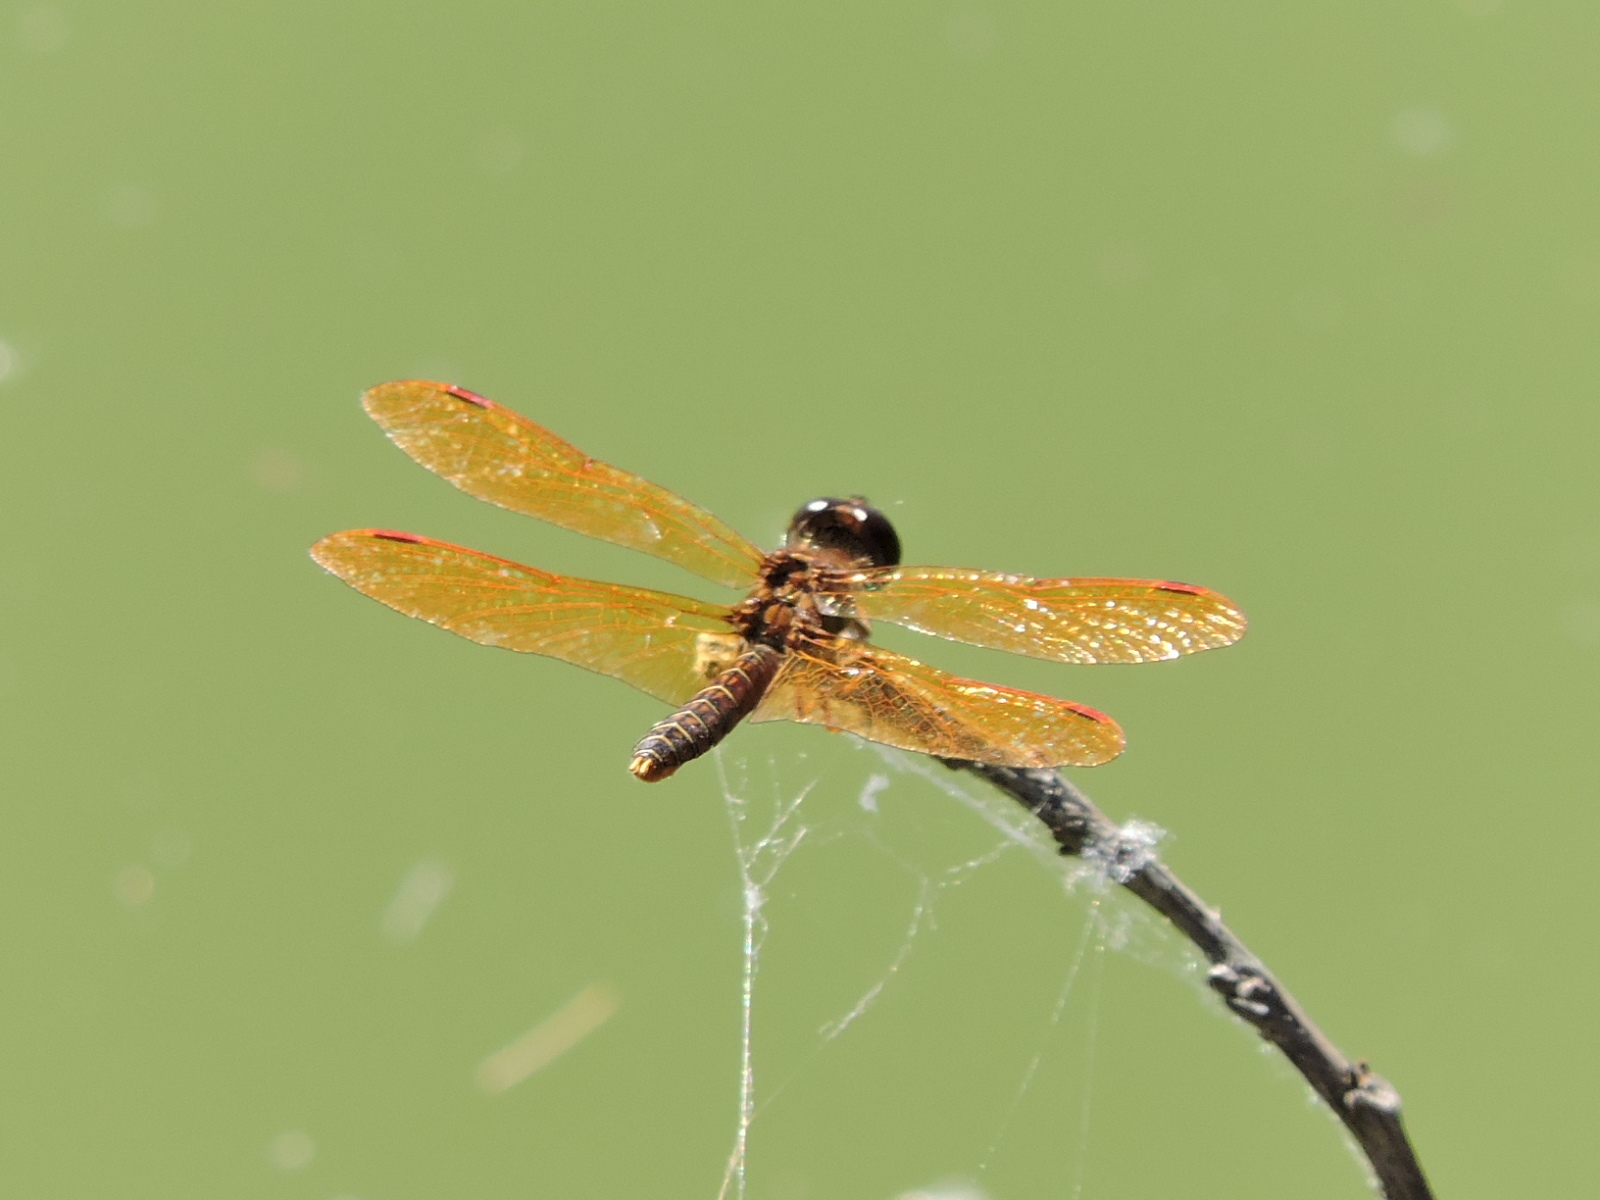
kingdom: Animalia
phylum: Arthropoda
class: Insecta
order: Odonata
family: Libellulidae
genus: Perithemis
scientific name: Perithemis tenera
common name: Eastern amberwing
